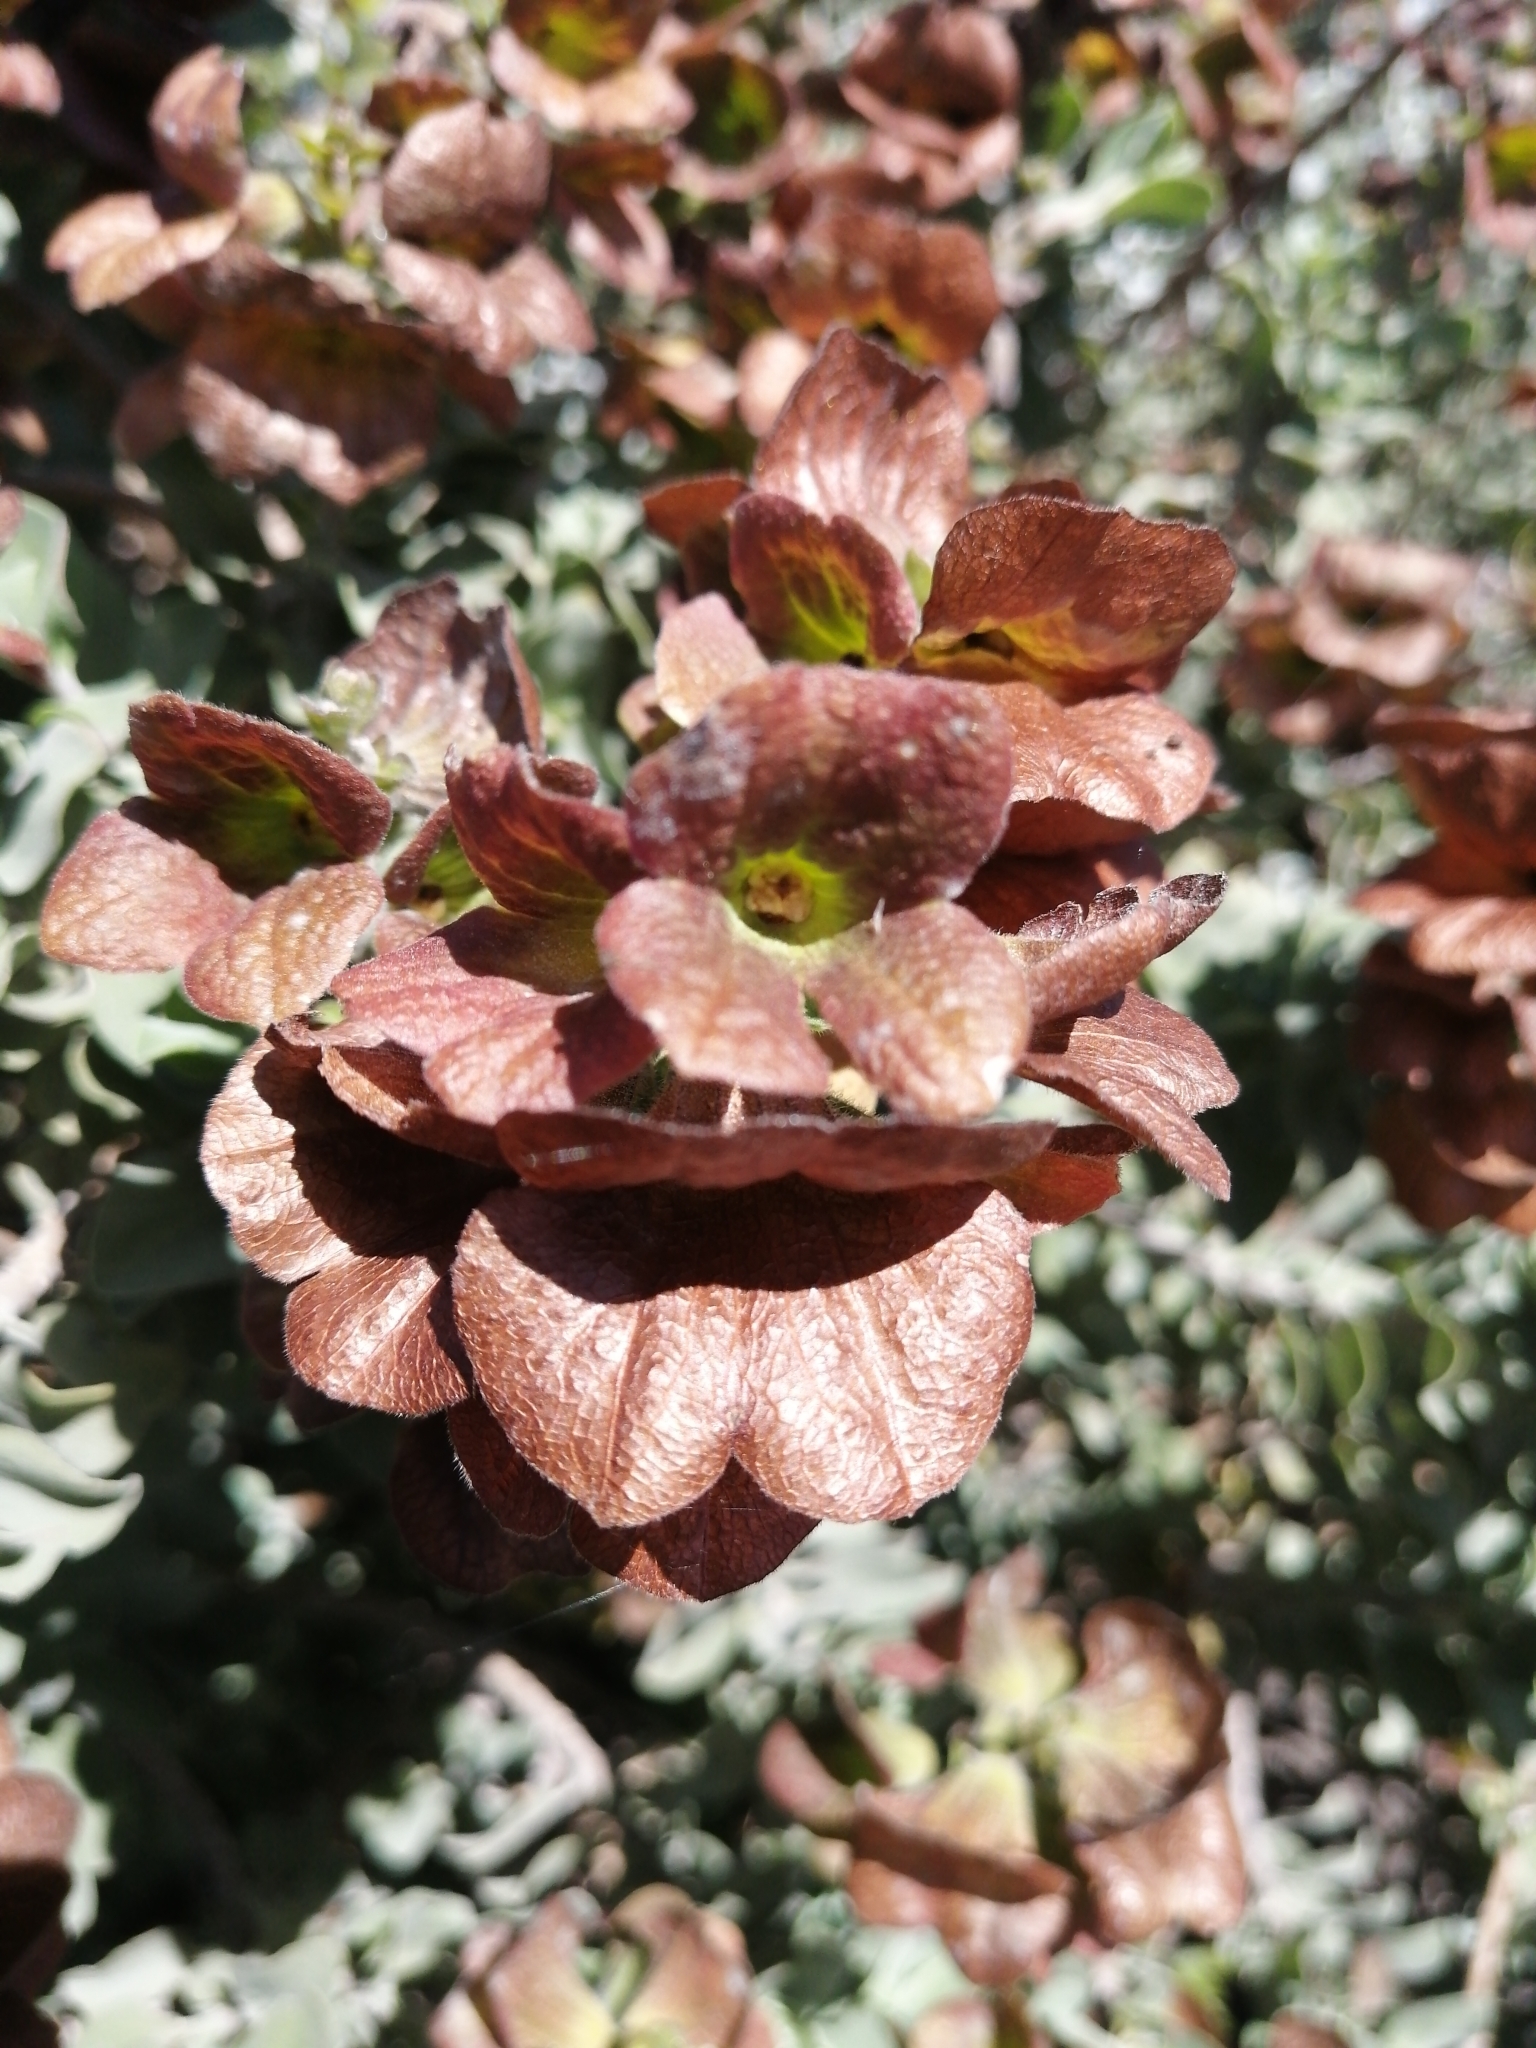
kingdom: Plantae
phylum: Tracheophyta
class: Magnoliopsida
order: Lamiales
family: Lamiaceae
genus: Salvia
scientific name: Salvia aurea
